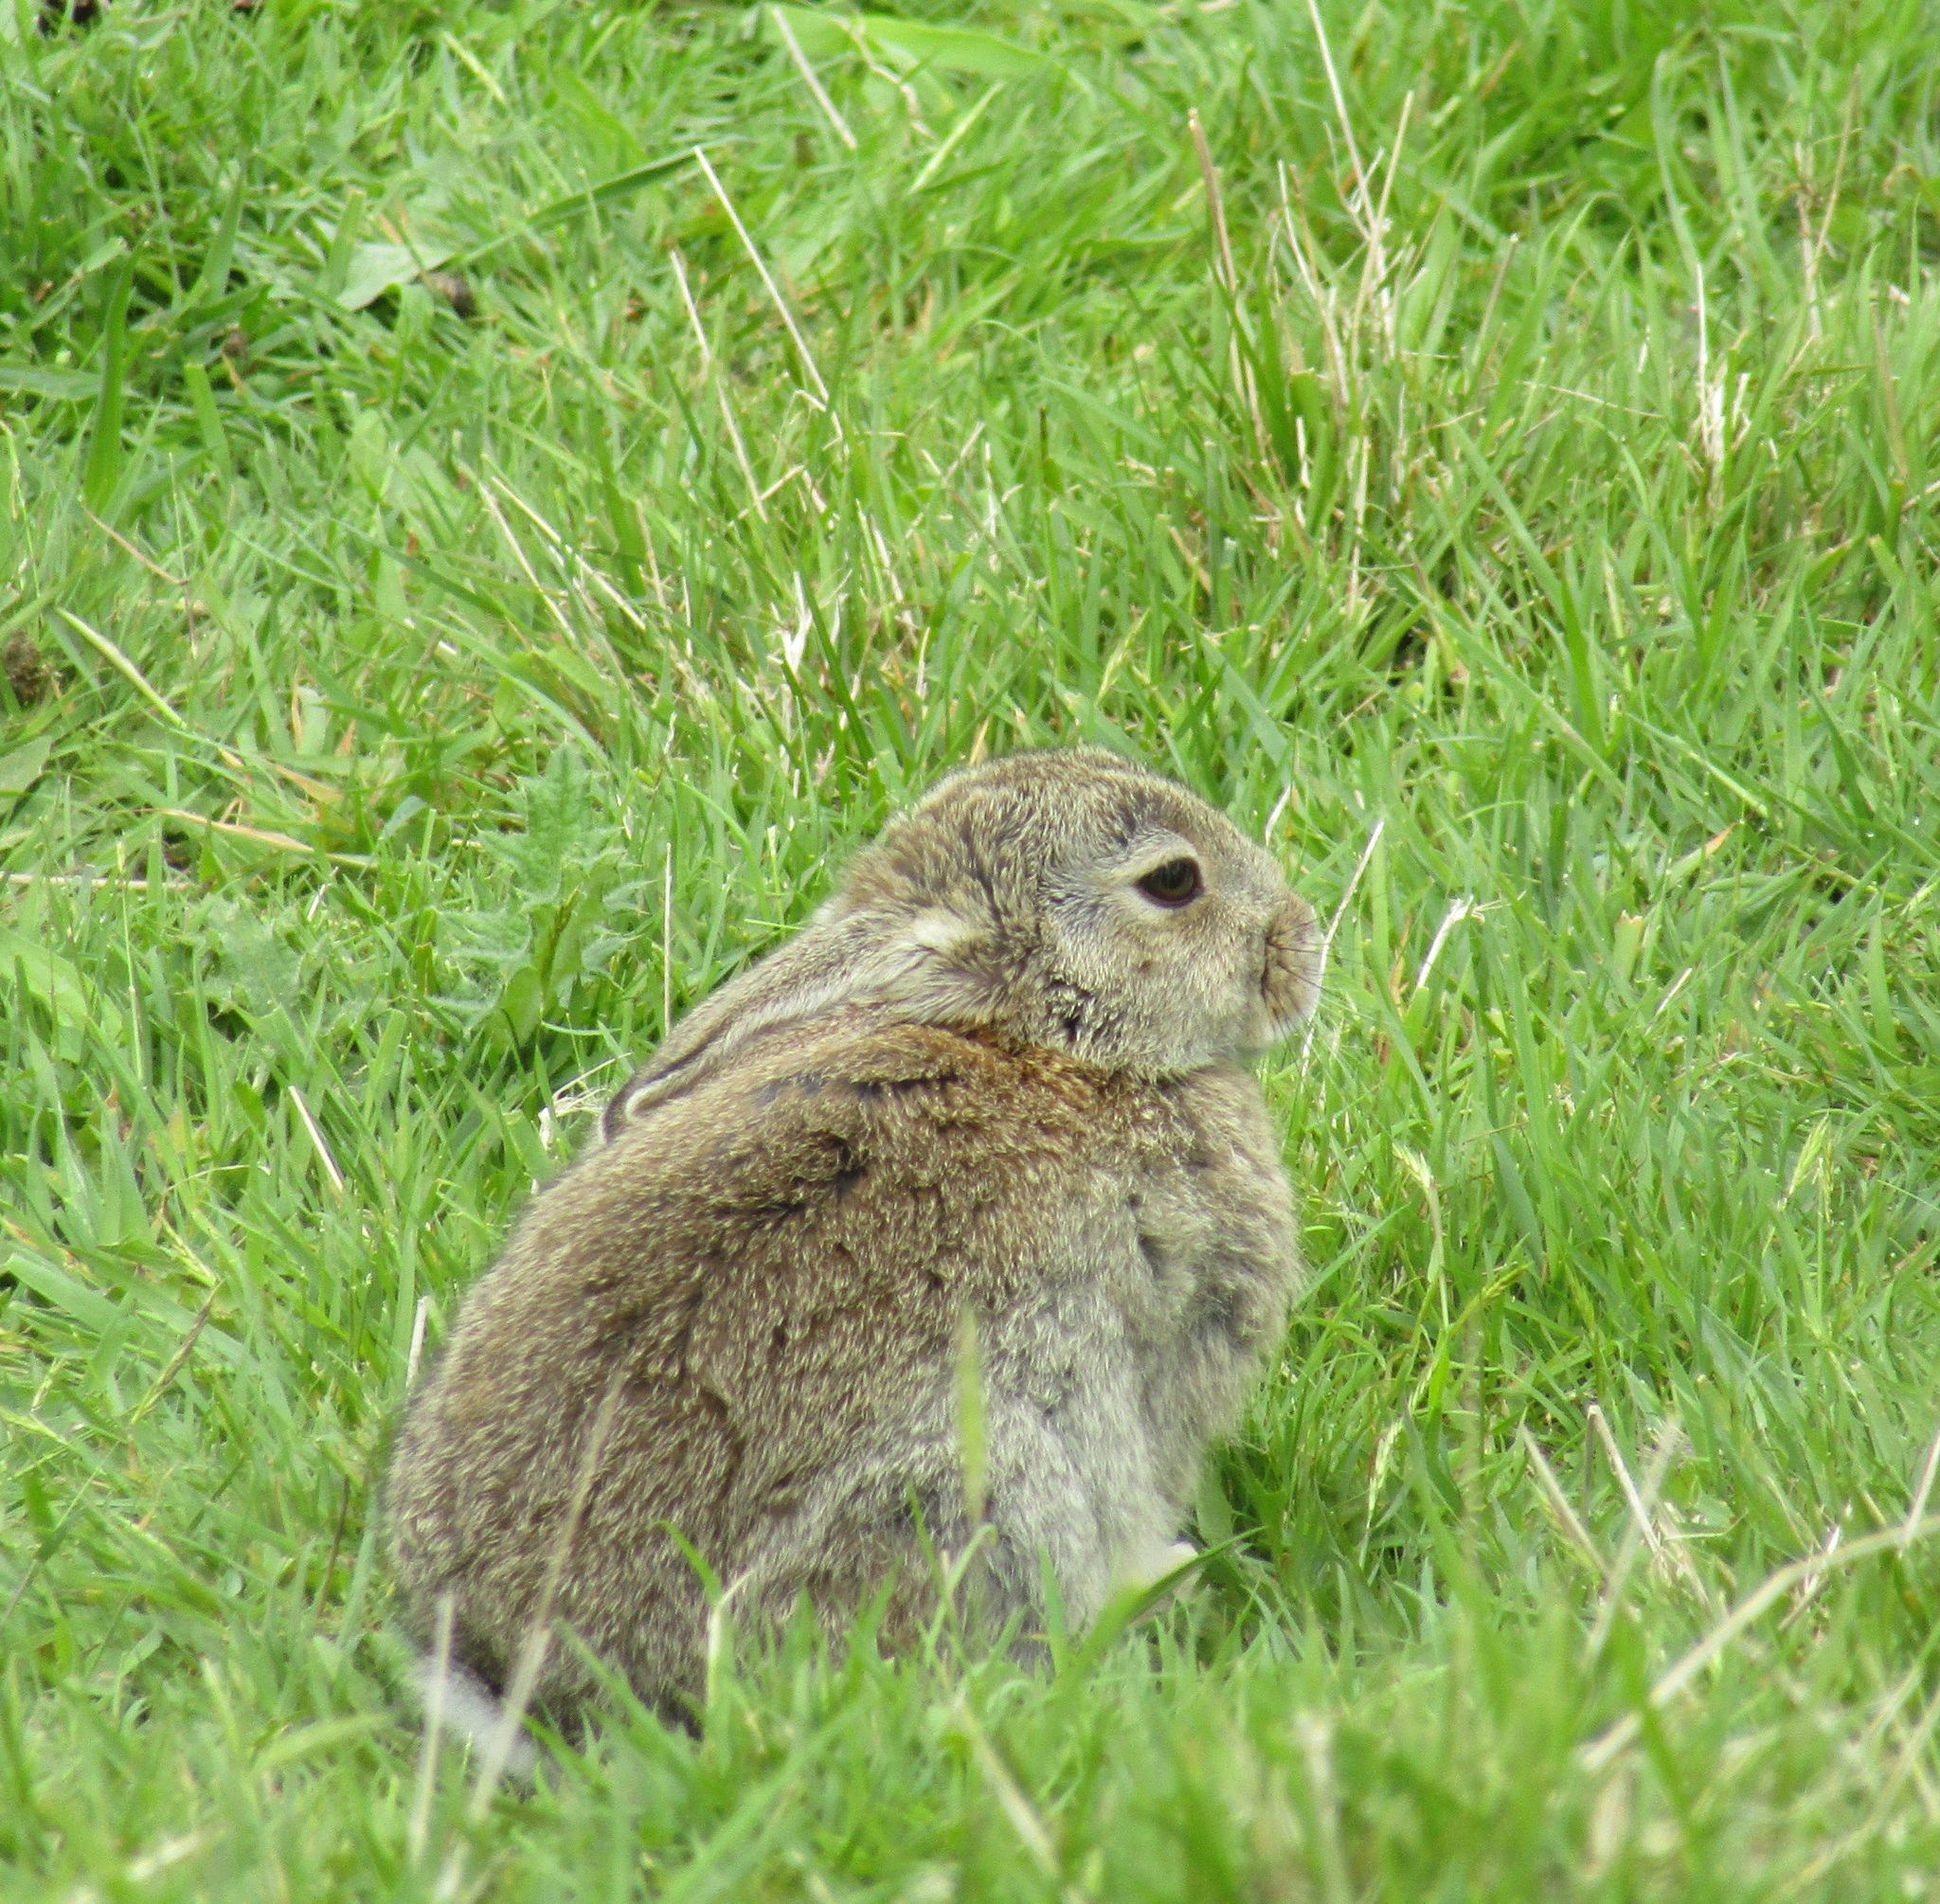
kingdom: Animalia
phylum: Chordata
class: Mammalia
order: Lagomorpha
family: Leporidae
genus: Oryctolagus
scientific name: Oryctolagus cuniculus
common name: European rabbit
